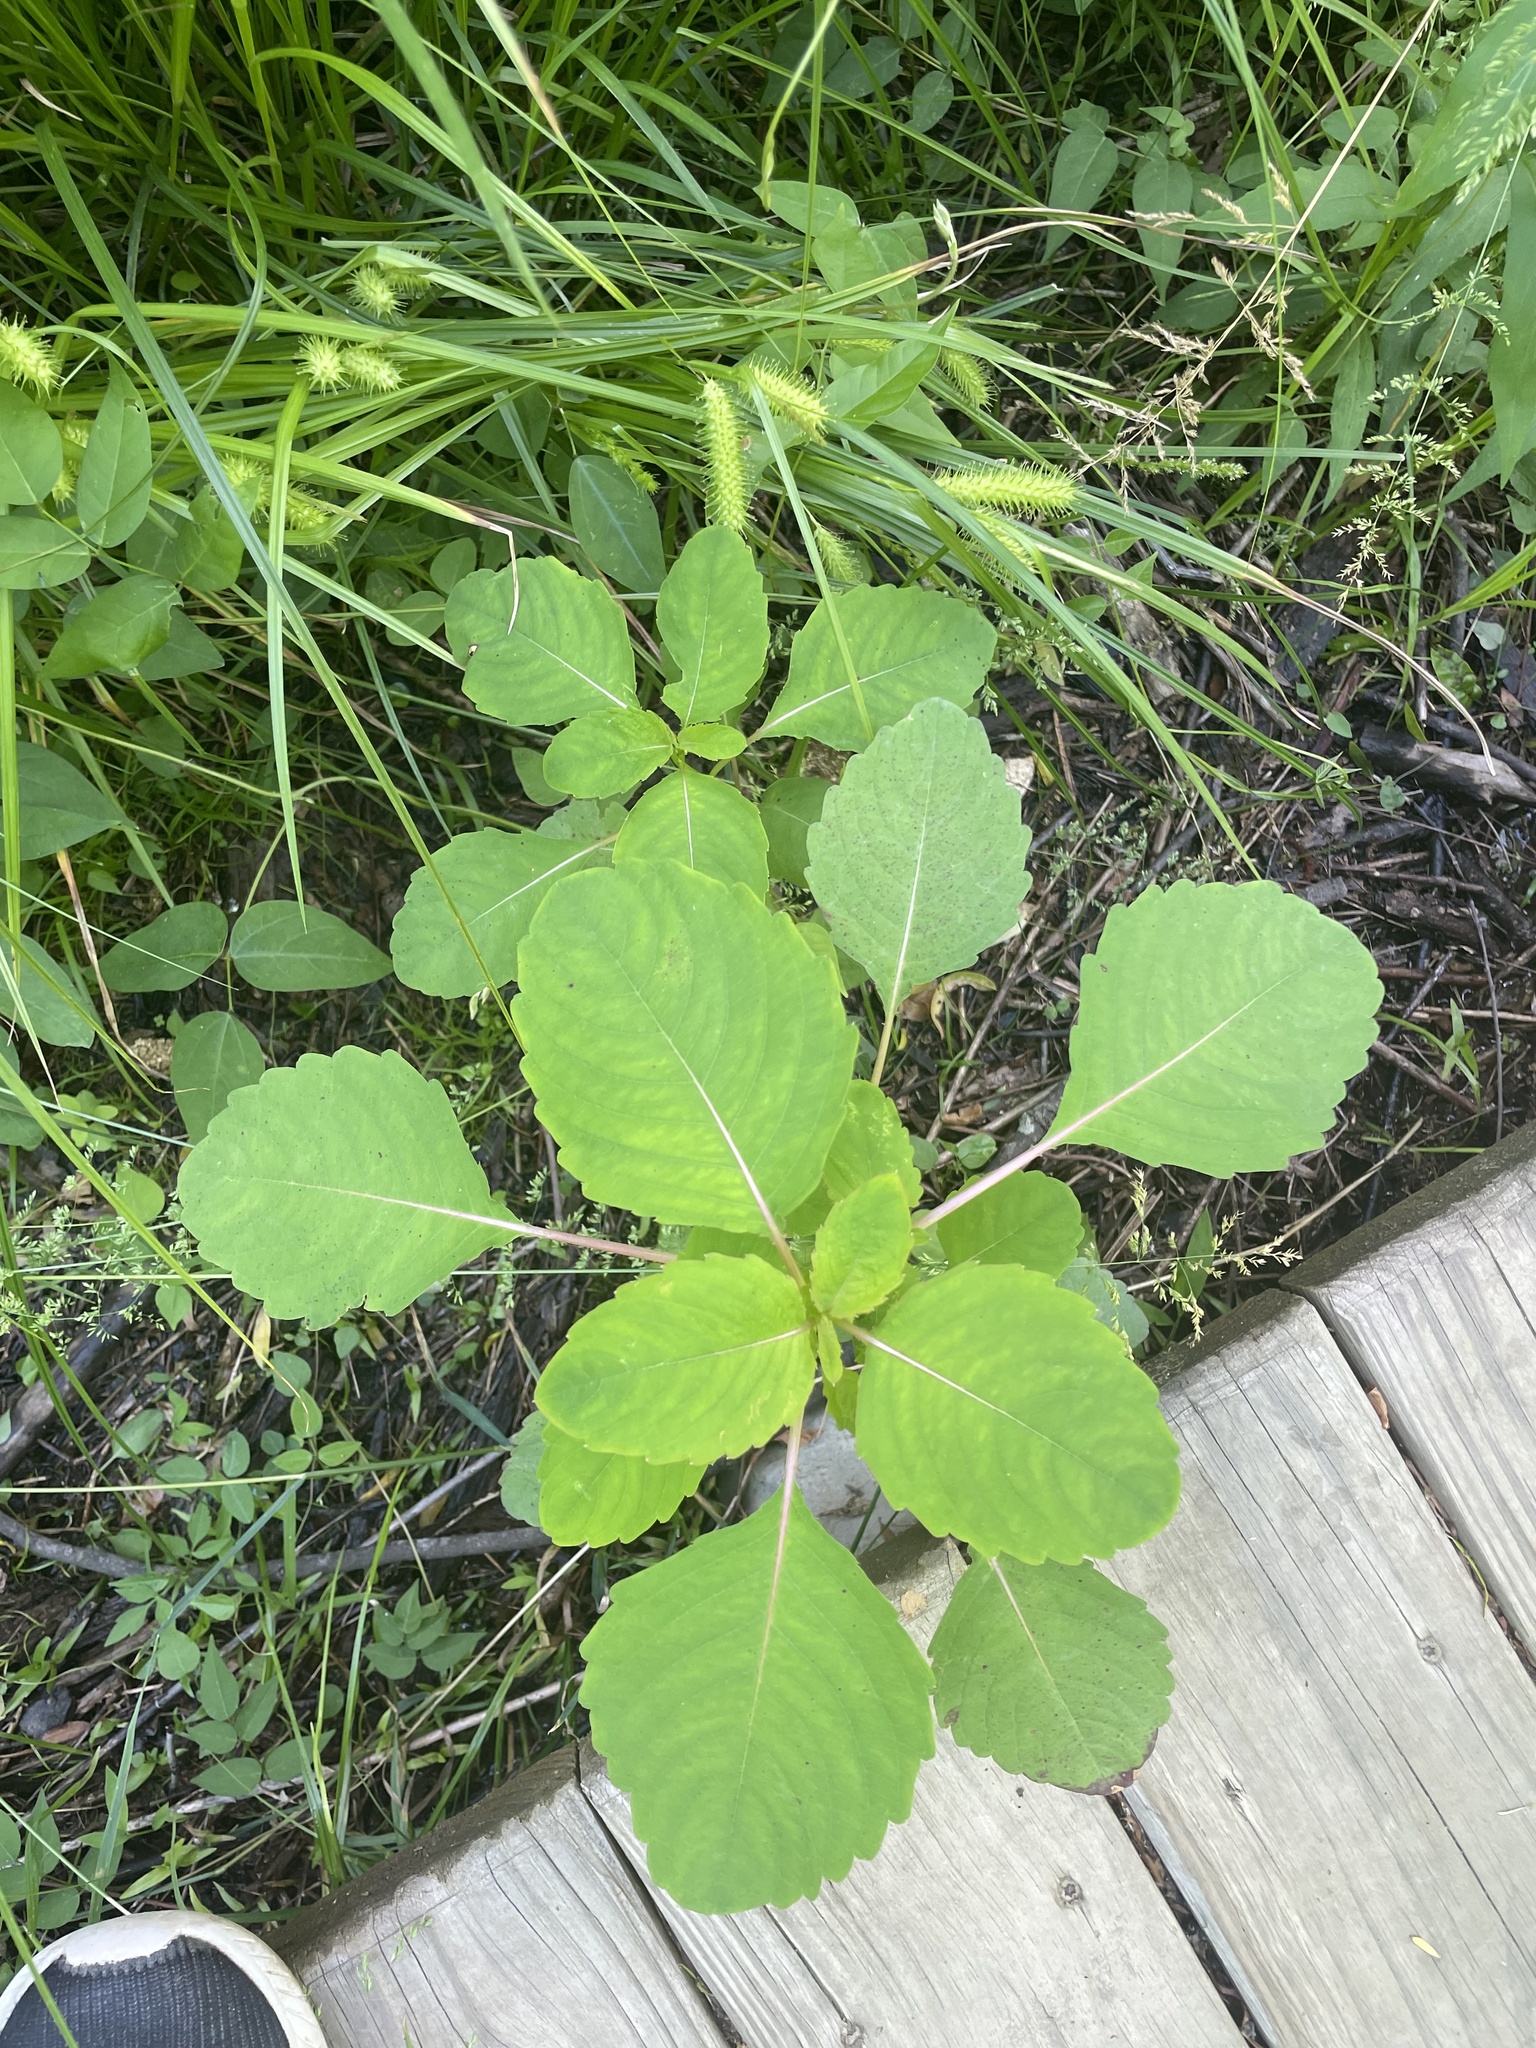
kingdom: Plantae
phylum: Tracheophyta
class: Magnoliopsida
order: Ericales
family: Balsaminaceae
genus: Impatiens
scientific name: Impatiens capensis
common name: Orange balsam
